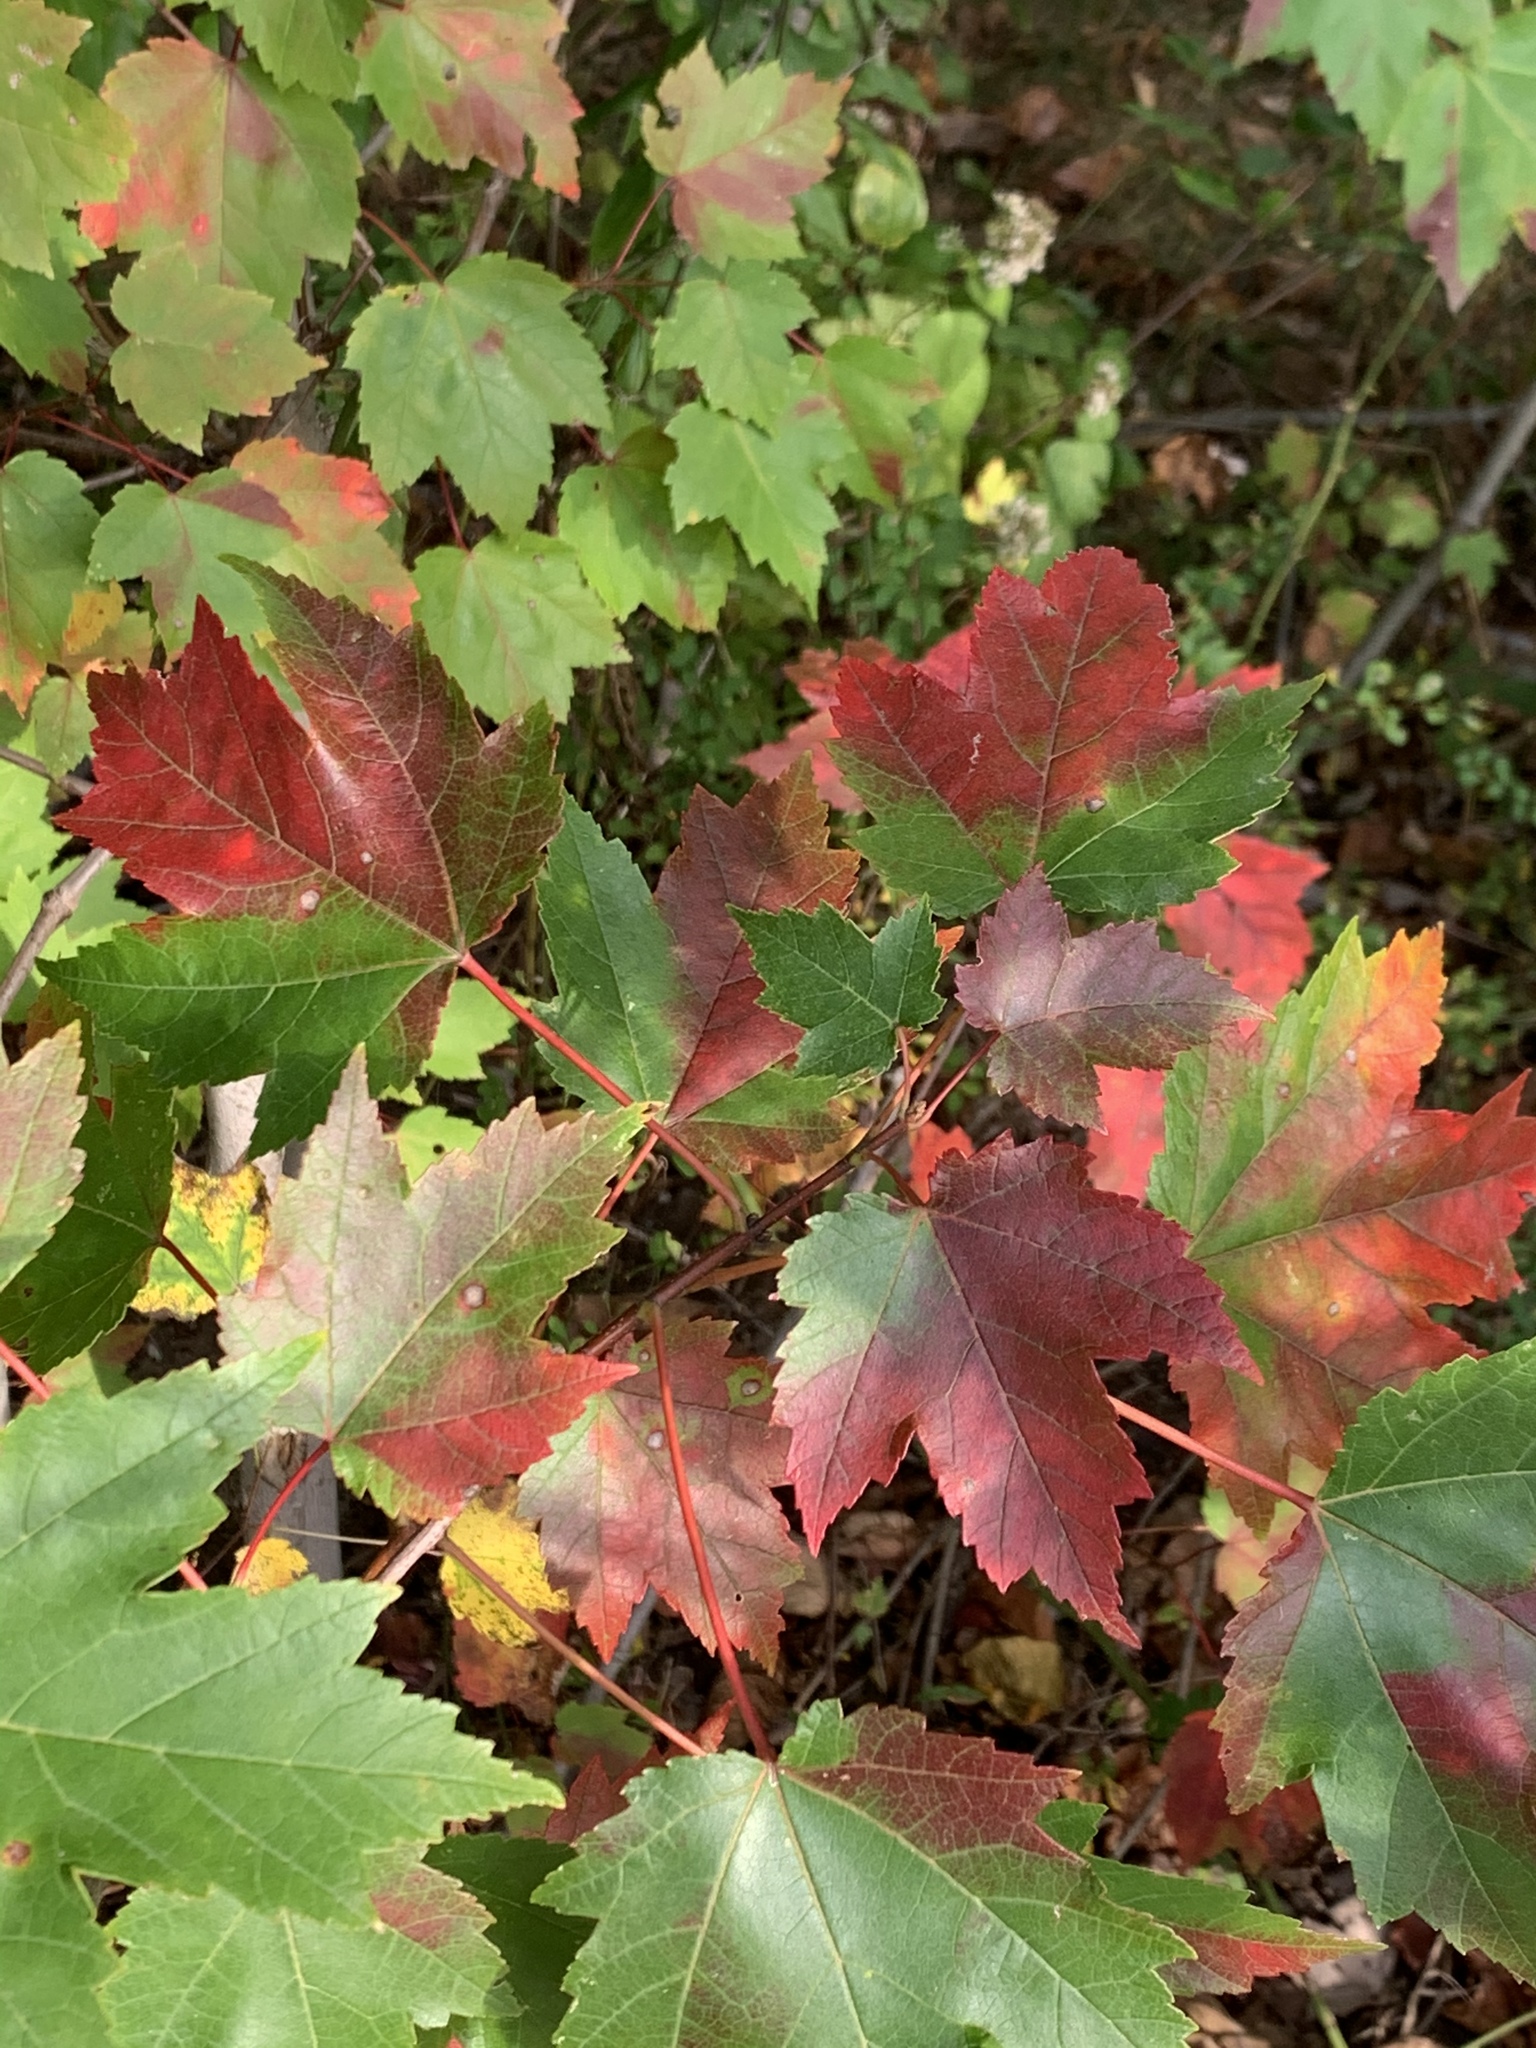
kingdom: Plantae
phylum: Tracheophyta
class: Magnoliopsida
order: Sapindales
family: Sapindaceae
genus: Acer
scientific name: Acer rubrum
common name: Red maple
